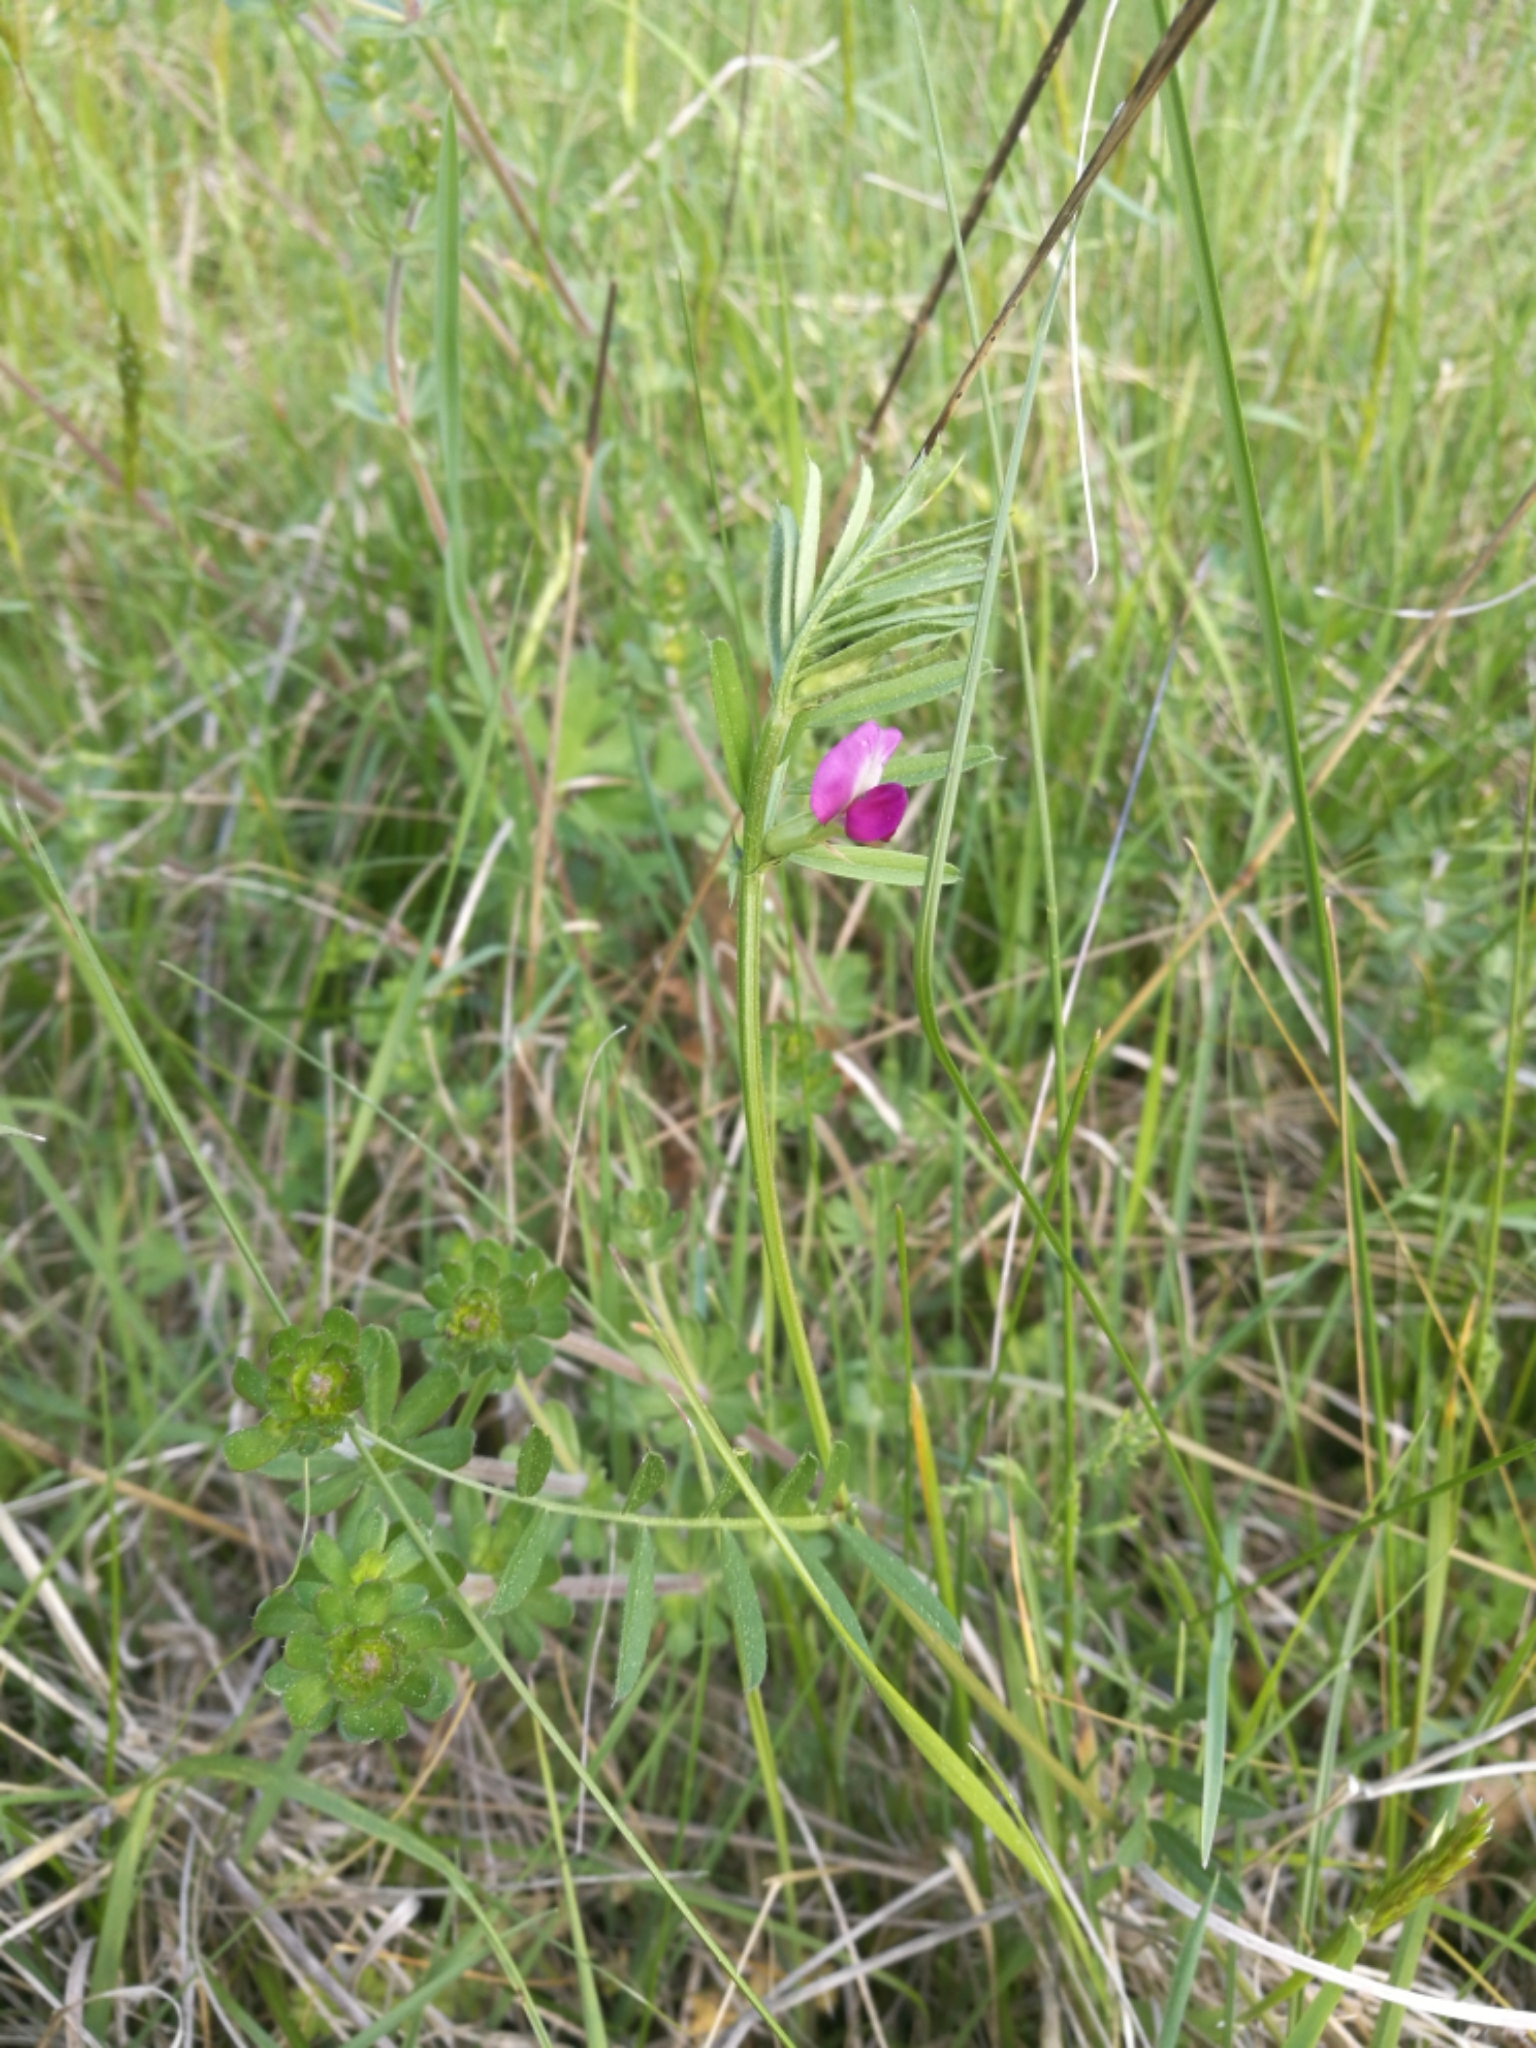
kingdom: Plantae
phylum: Tracheophyta
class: Magnoliopsida
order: Fabales
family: Fabaceae
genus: Vicia
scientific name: Vicia sativa
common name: Garden vetch
